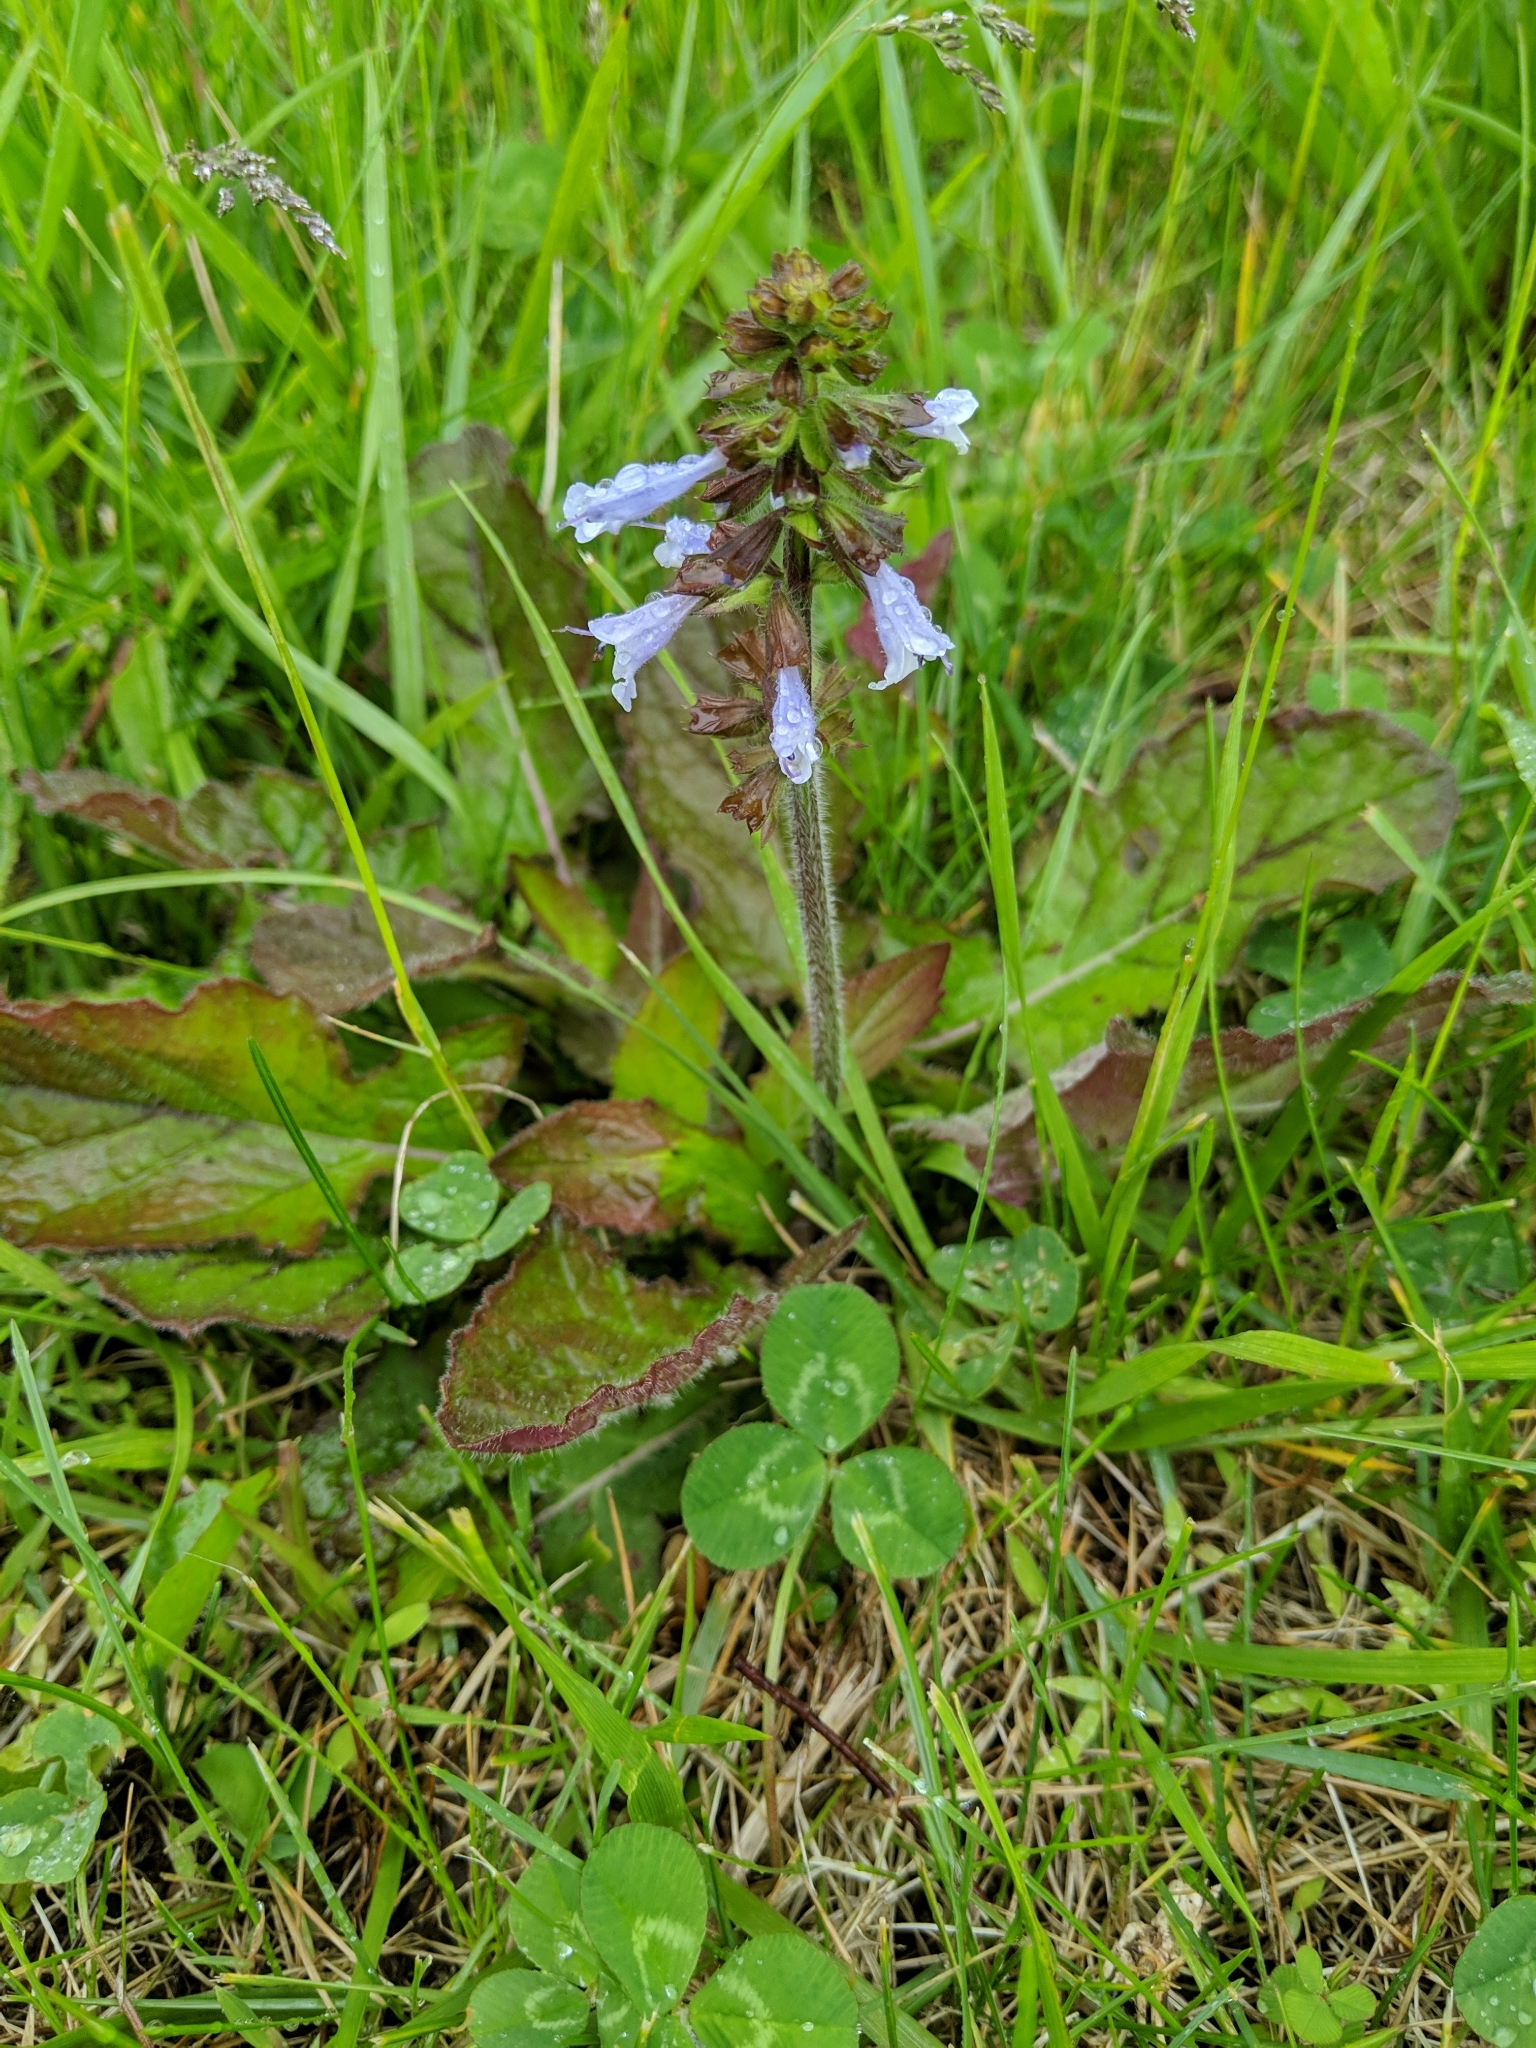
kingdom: Plantae
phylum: Tracheophyta
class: Magnoliopsida
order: Lamiales
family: Lamiaceae
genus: Salvia
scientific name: Salvia lyrata
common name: Cancerweed
